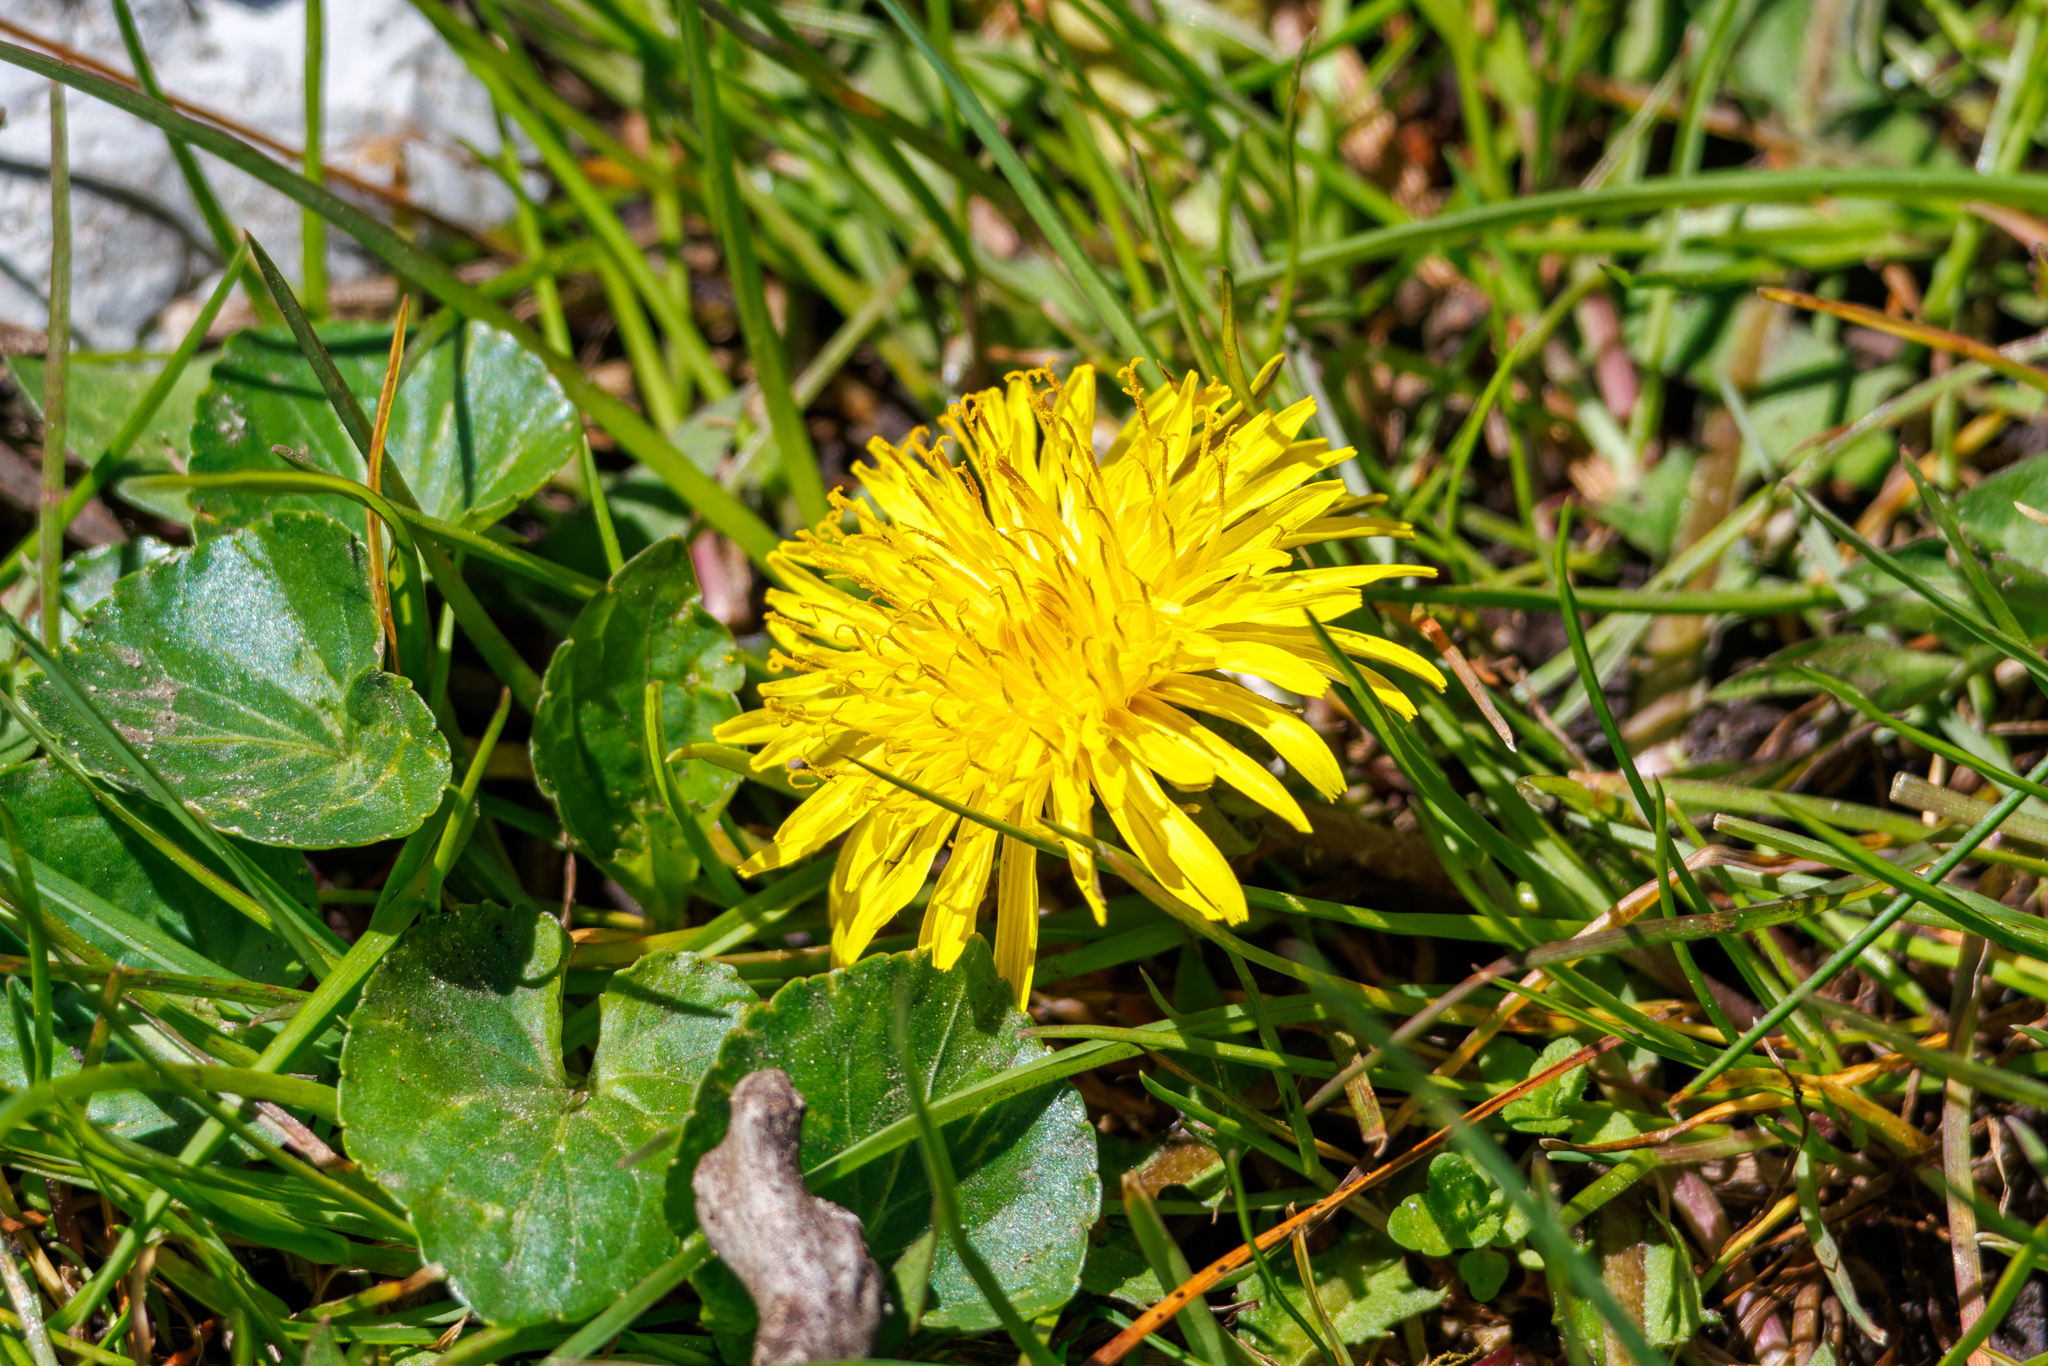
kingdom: Plantae
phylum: Tracheophyta
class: Magnoliopsida
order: Asterales
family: Asteraceae
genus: Taraxacum
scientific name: Taraxacum officinale
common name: Common dandelion
